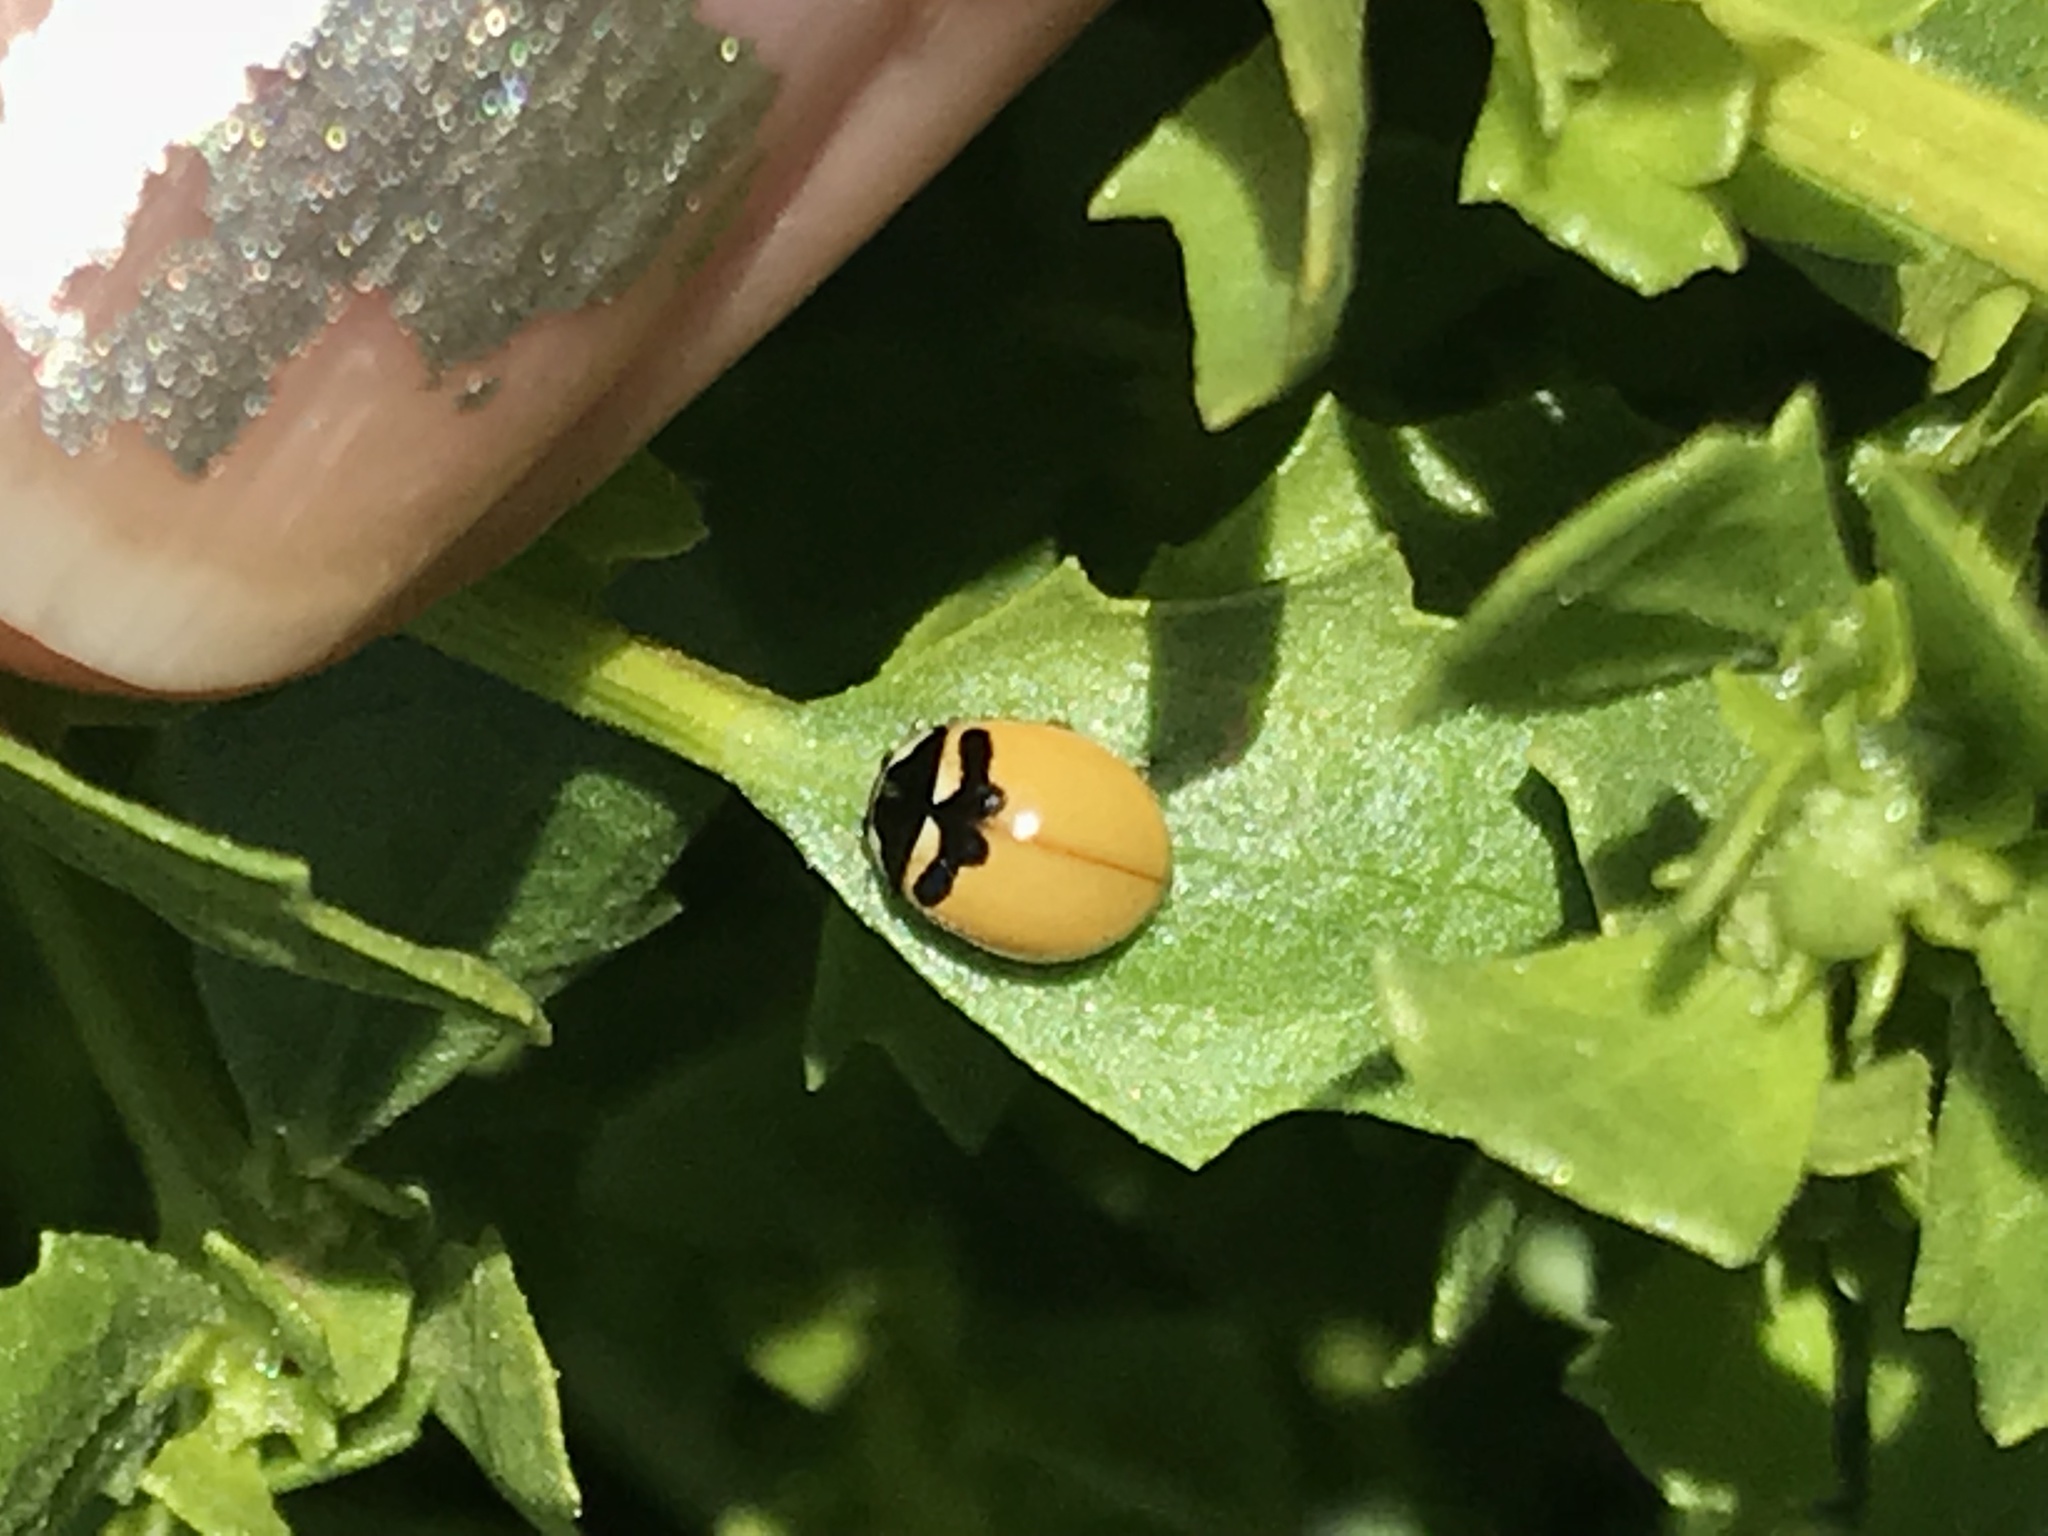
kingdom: Animalia
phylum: Arthropoda
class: Insecta
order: Coleoptera
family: Coccinellidae
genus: Coccinella
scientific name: Coccinella trifasciata
